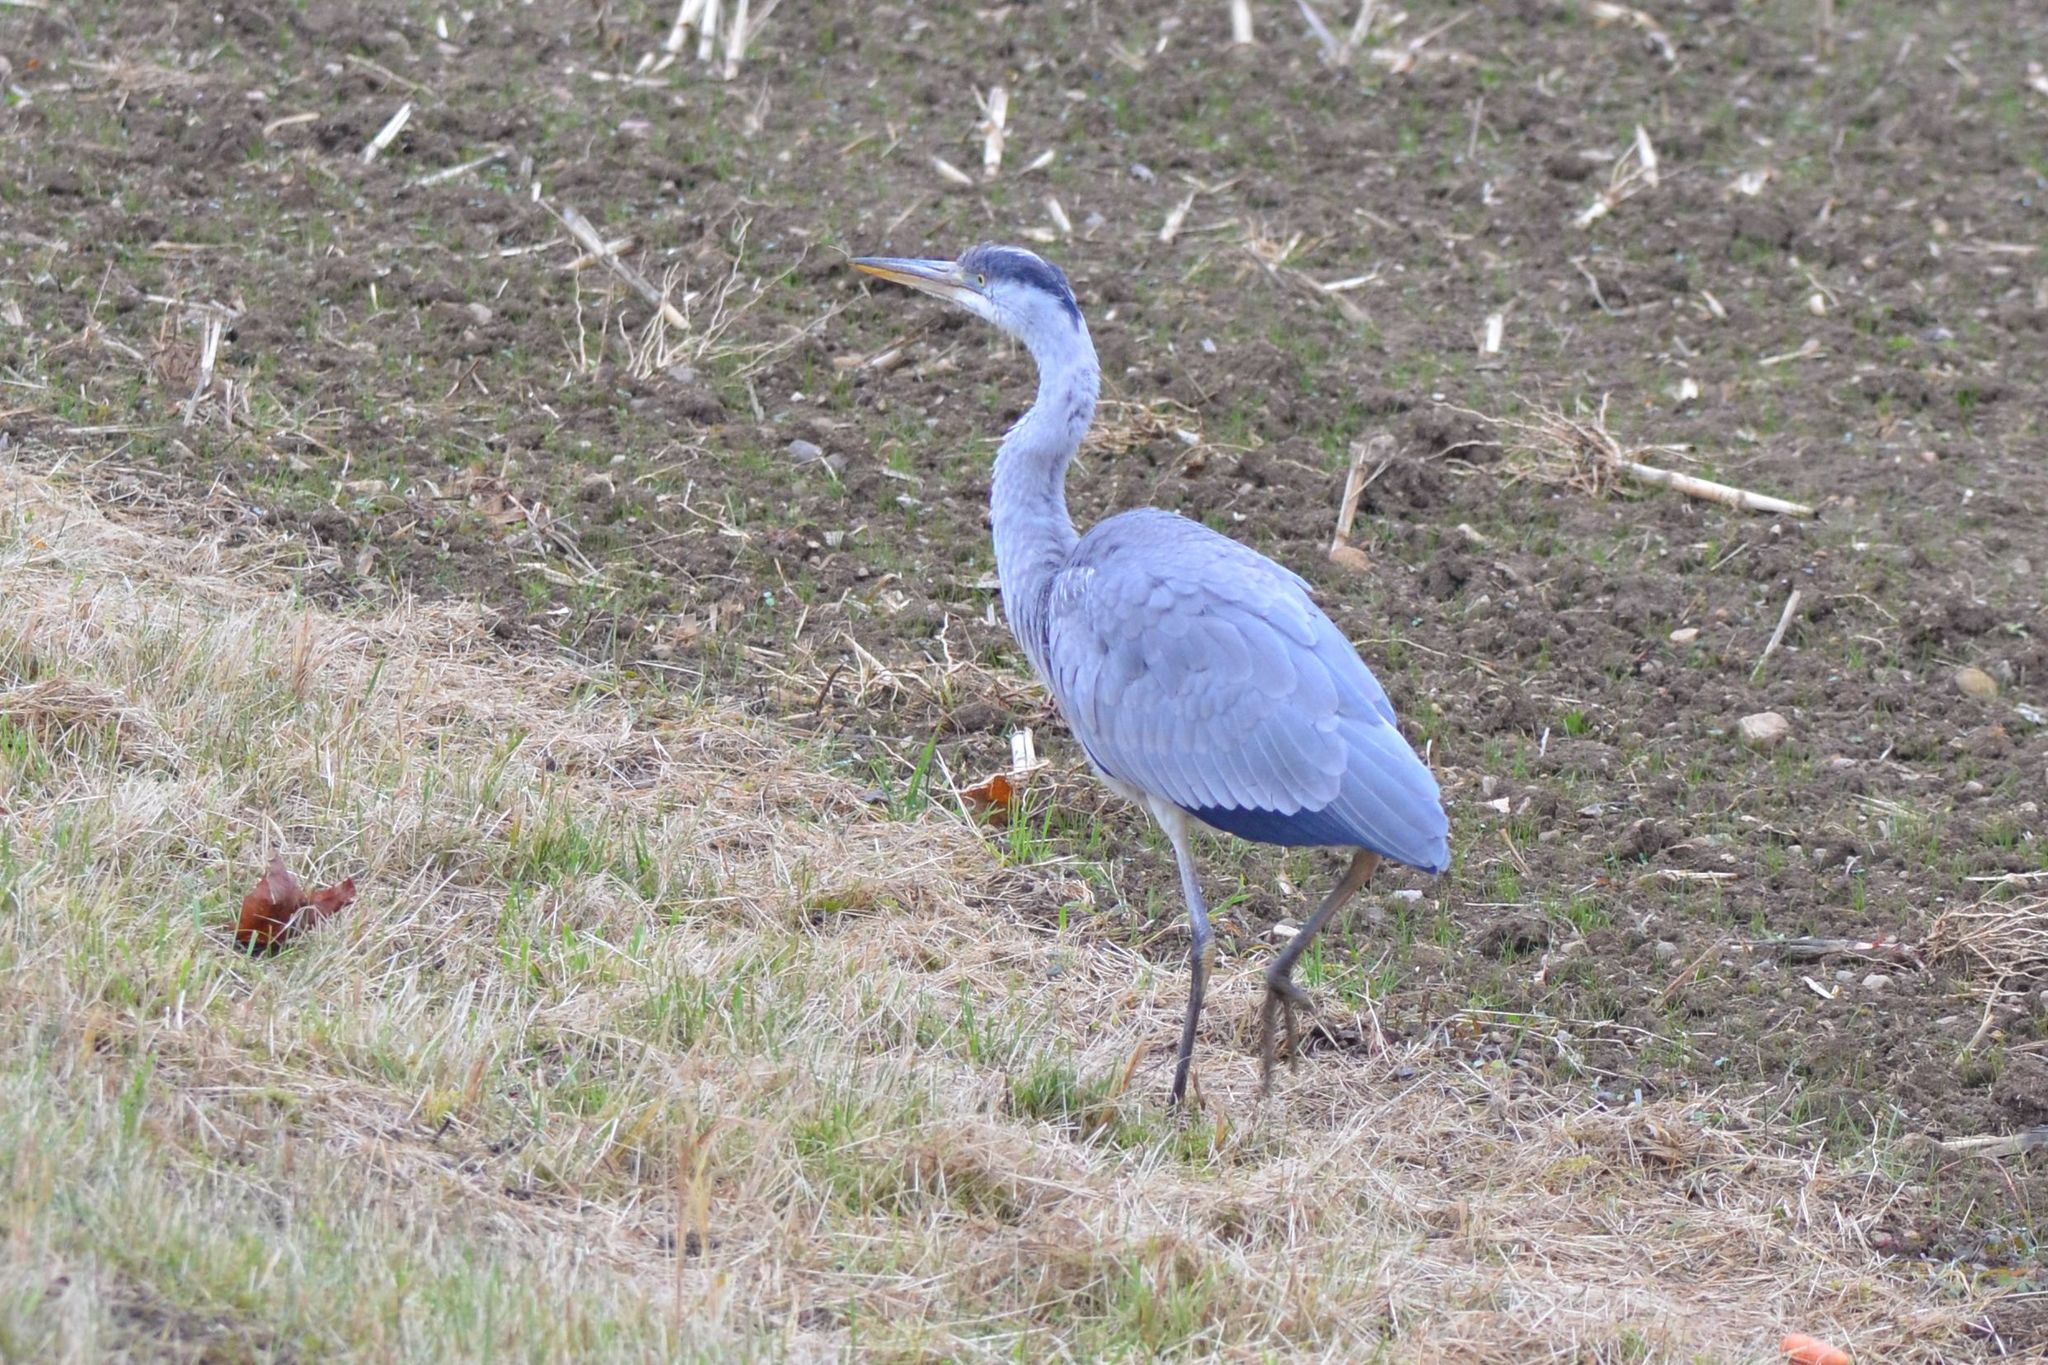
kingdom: Animalia
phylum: Chordata
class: Aves
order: Pelecaniformes
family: Ardeidae
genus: Ardea
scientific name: Ardea cinerea
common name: Grey heron
